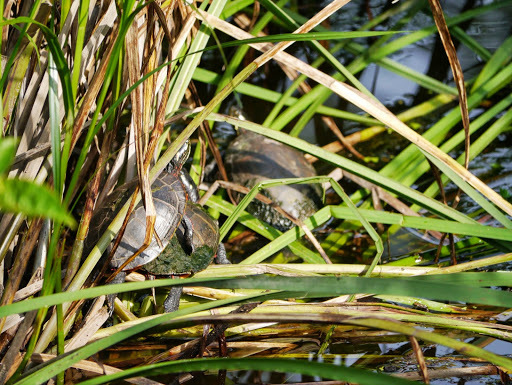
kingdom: Animalia
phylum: Chordata
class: Testudines
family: Emydidae
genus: Chrysemys
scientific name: Chrysemys picta
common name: Painted turtle
